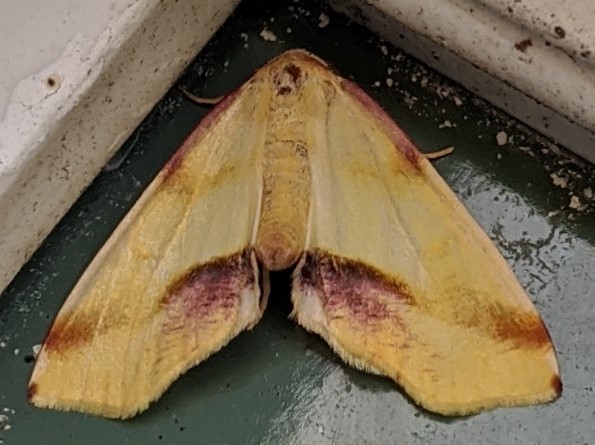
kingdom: Animalia
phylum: Arthropoda
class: Insecta
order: Lepidoptera
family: Geometridae
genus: Plagodis
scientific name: Plagodis serinaria
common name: Lemon plagodis
